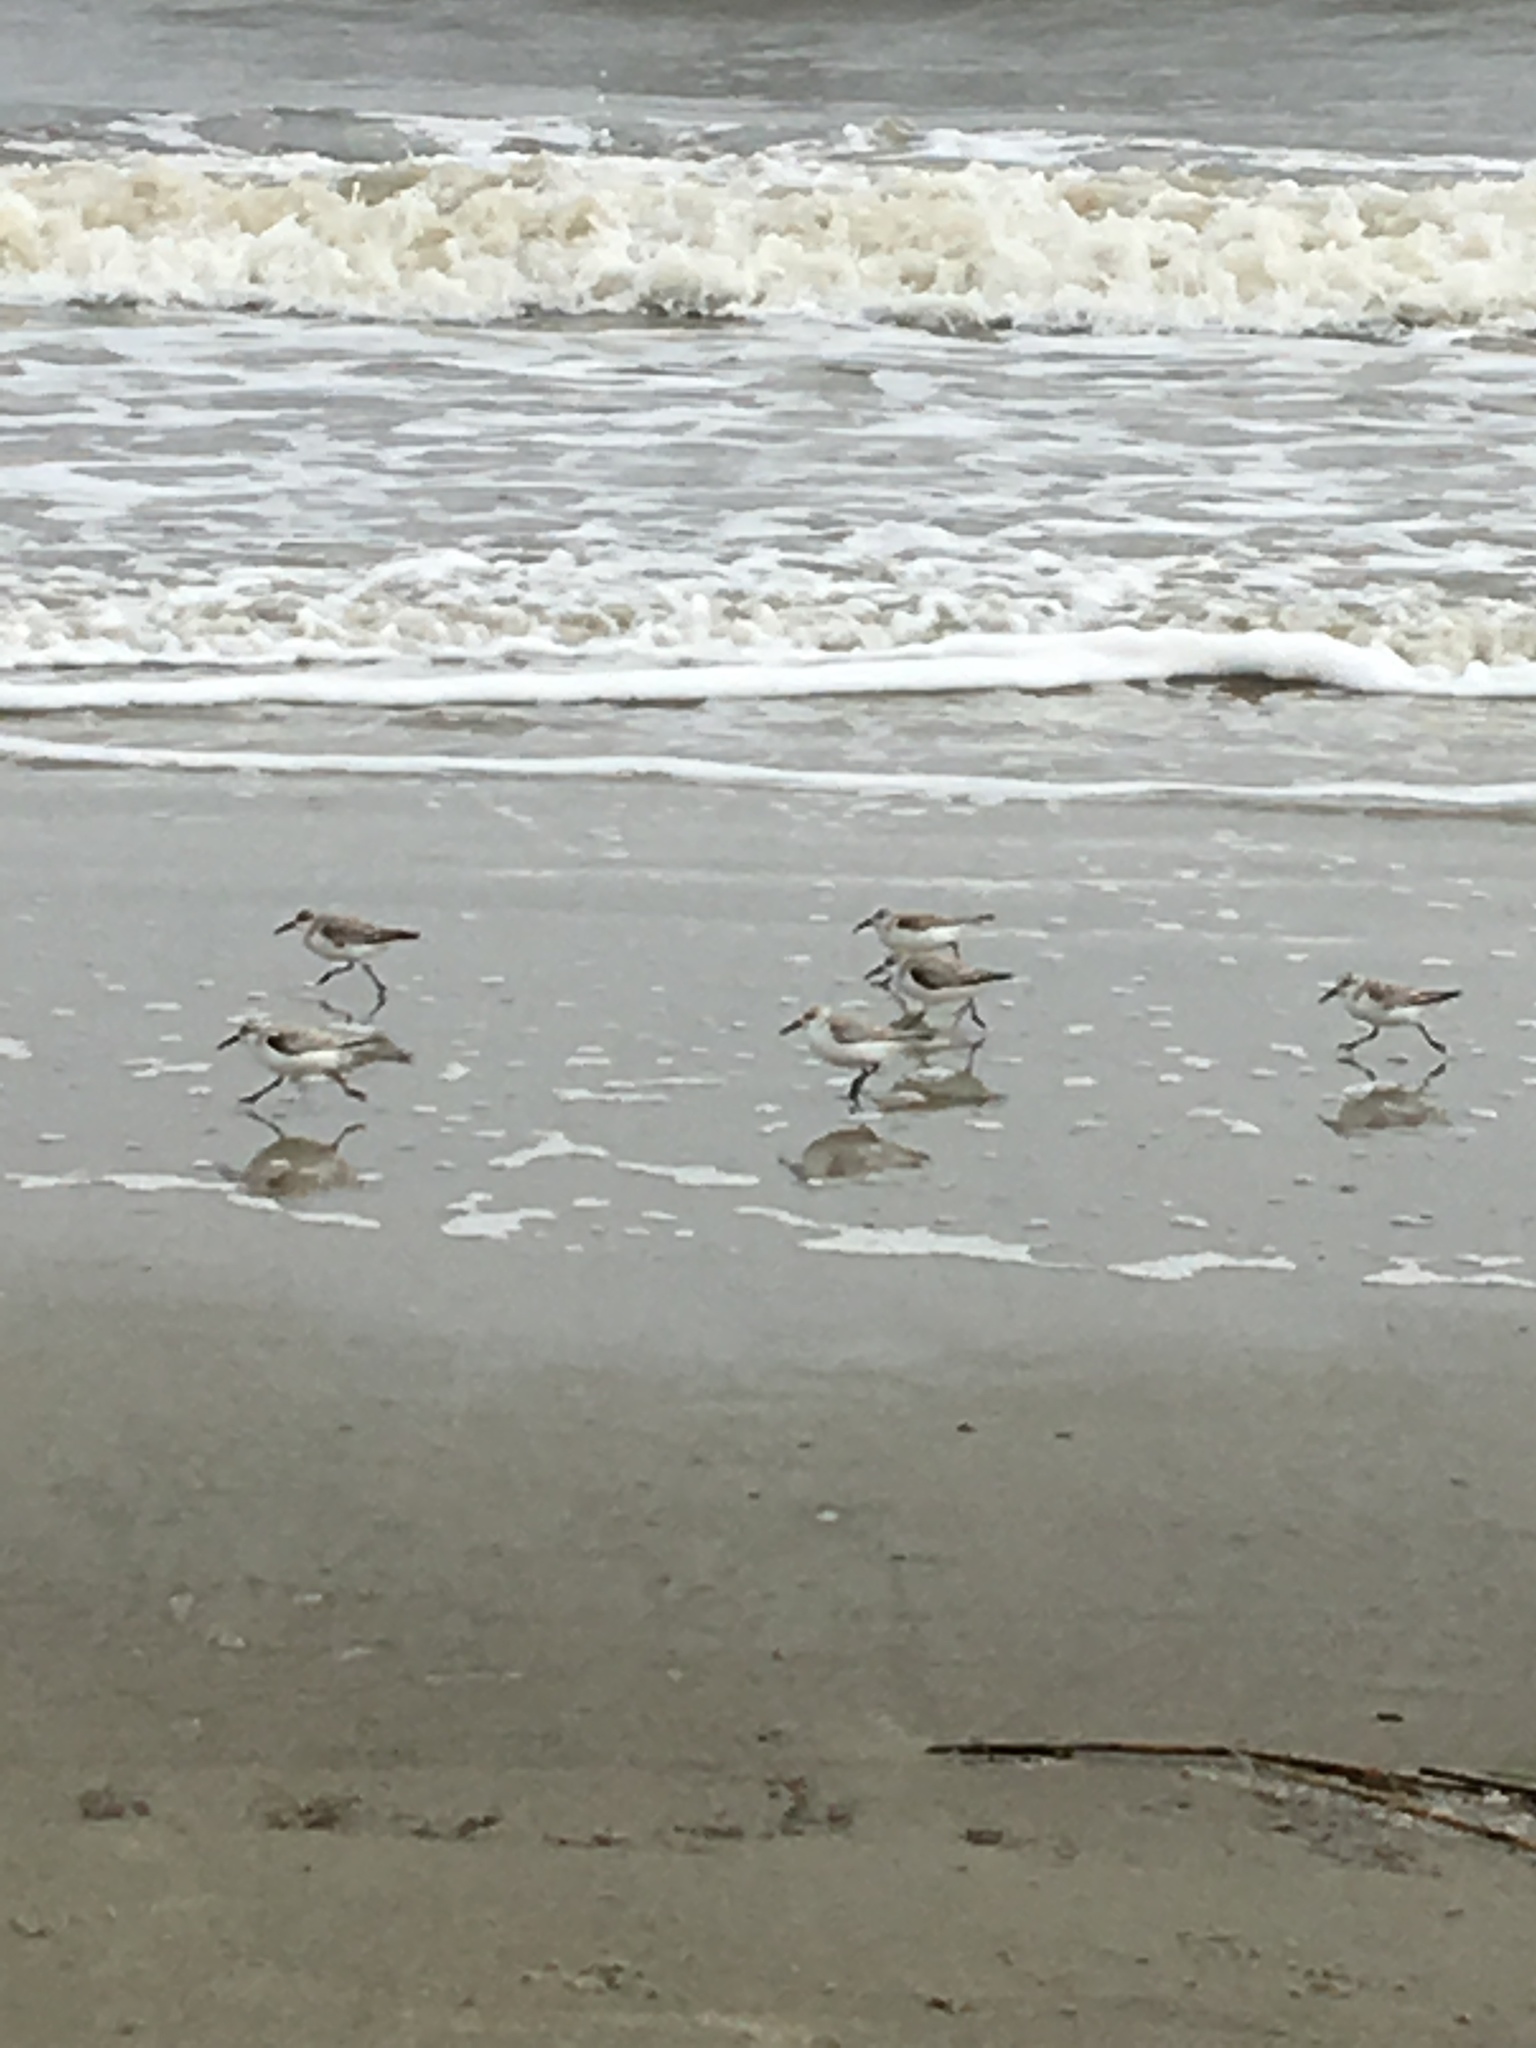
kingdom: Animalia
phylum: Chordata
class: Aves
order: Charadriiformes
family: Scolopacidae
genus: Calidris
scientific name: Calidris alba
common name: Sanderling
